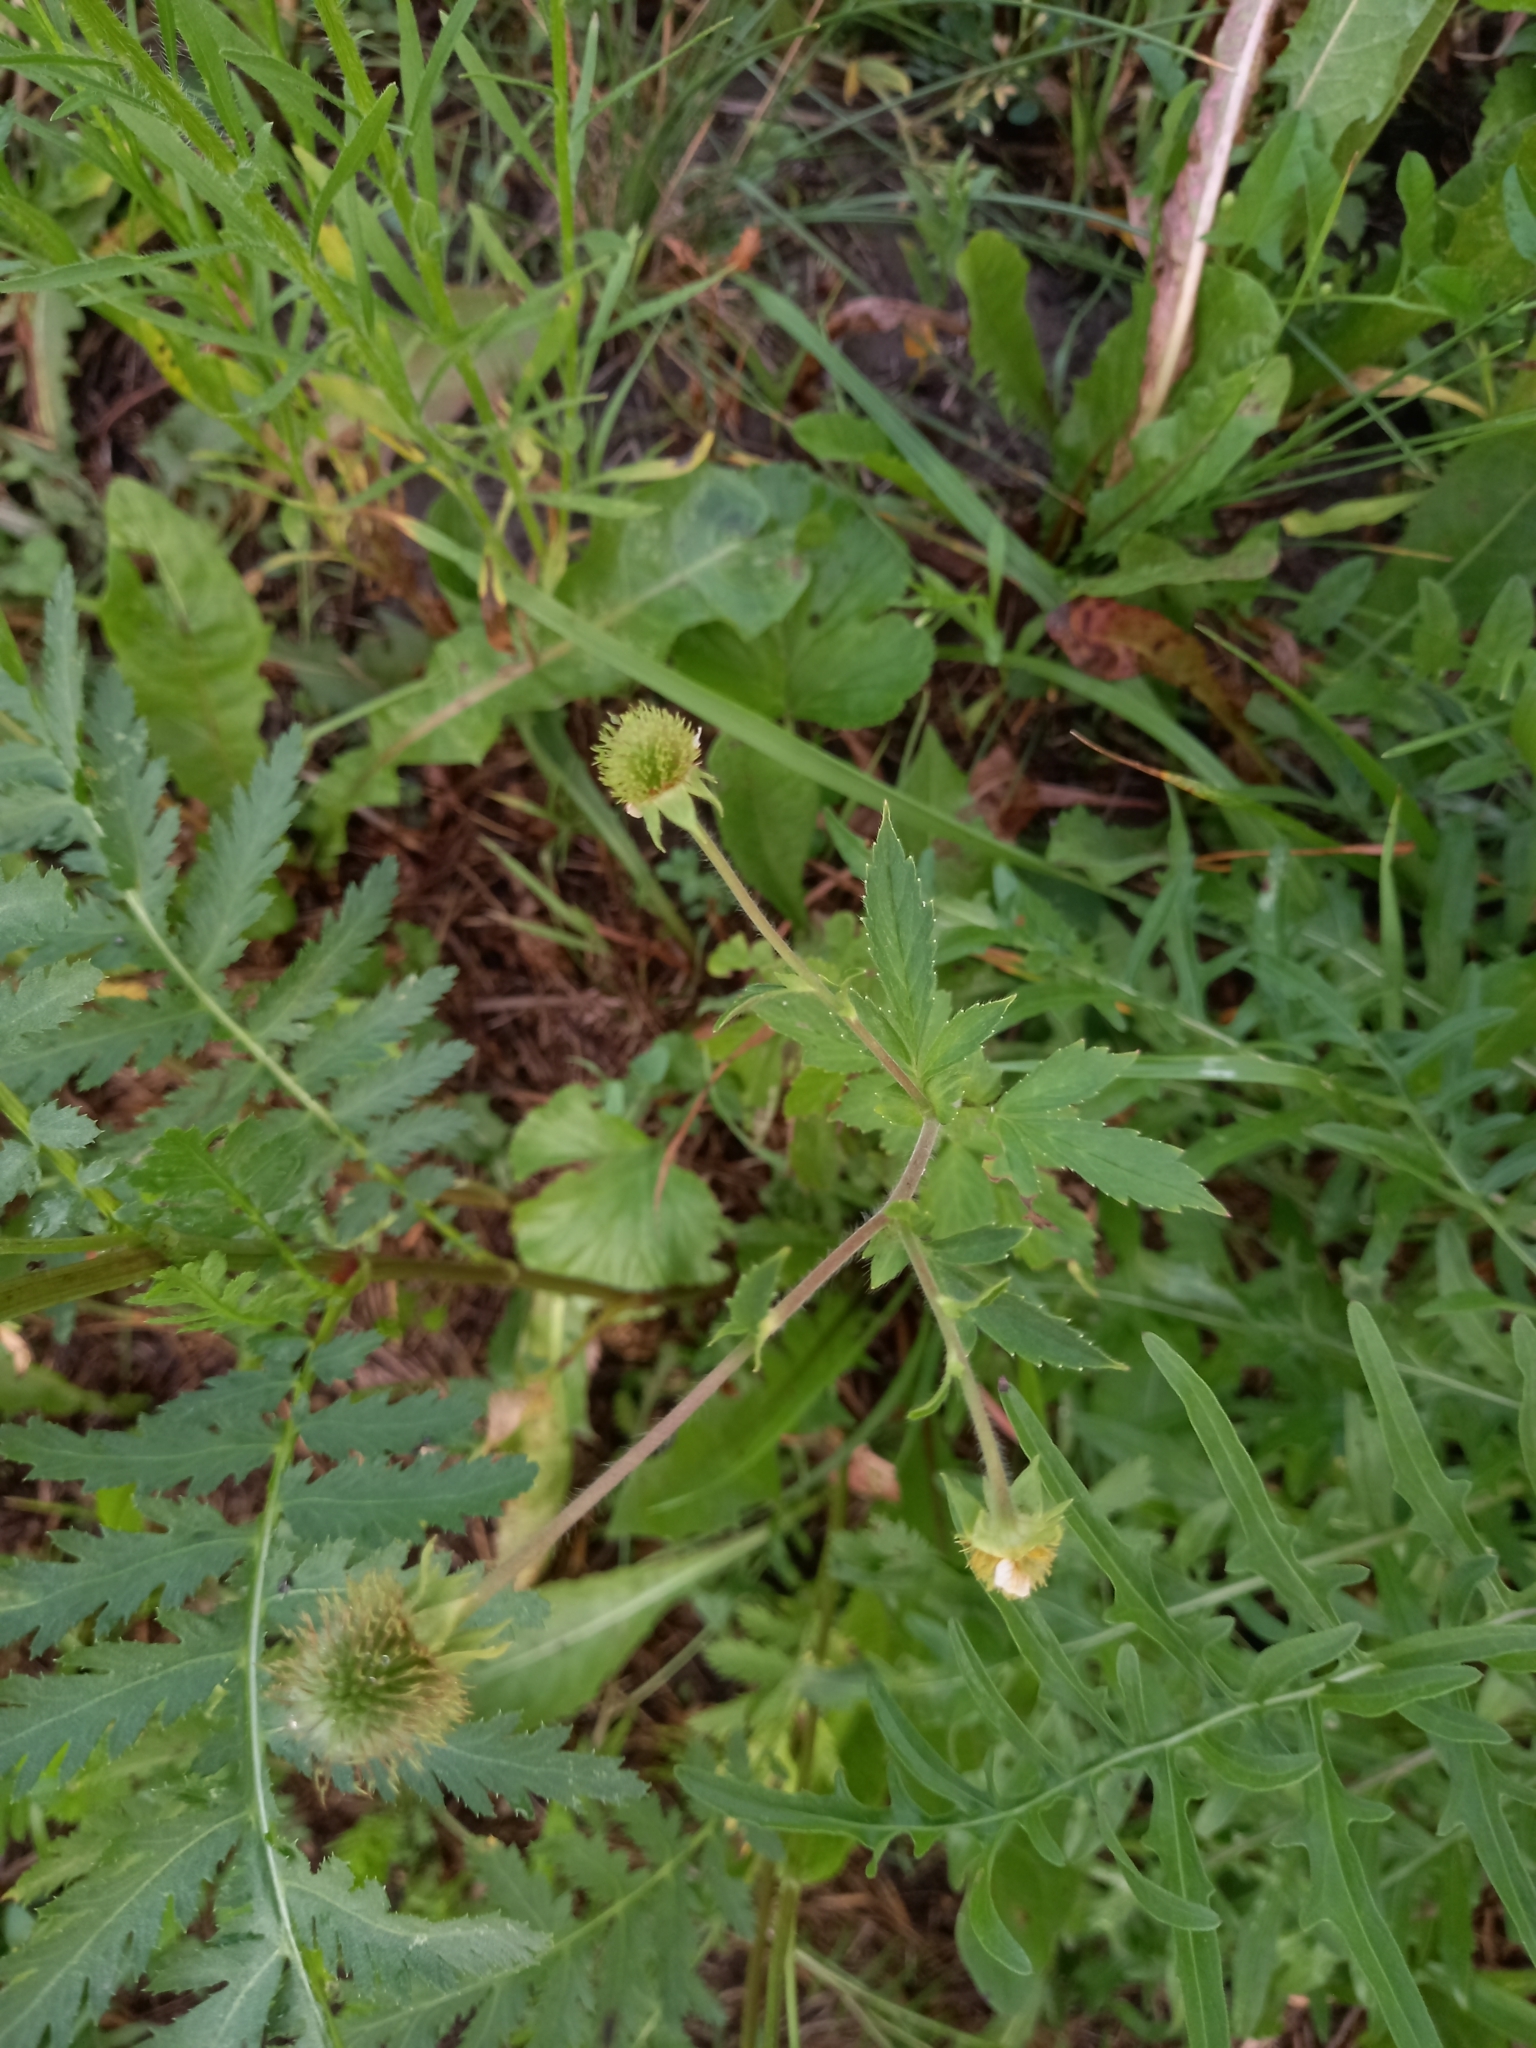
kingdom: Plantae
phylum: Tracheophyta
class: Magnoliopsida
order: Rosales
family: Rosaceae
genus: Geum
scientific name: Geum aleppicum
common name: Yellow avens
